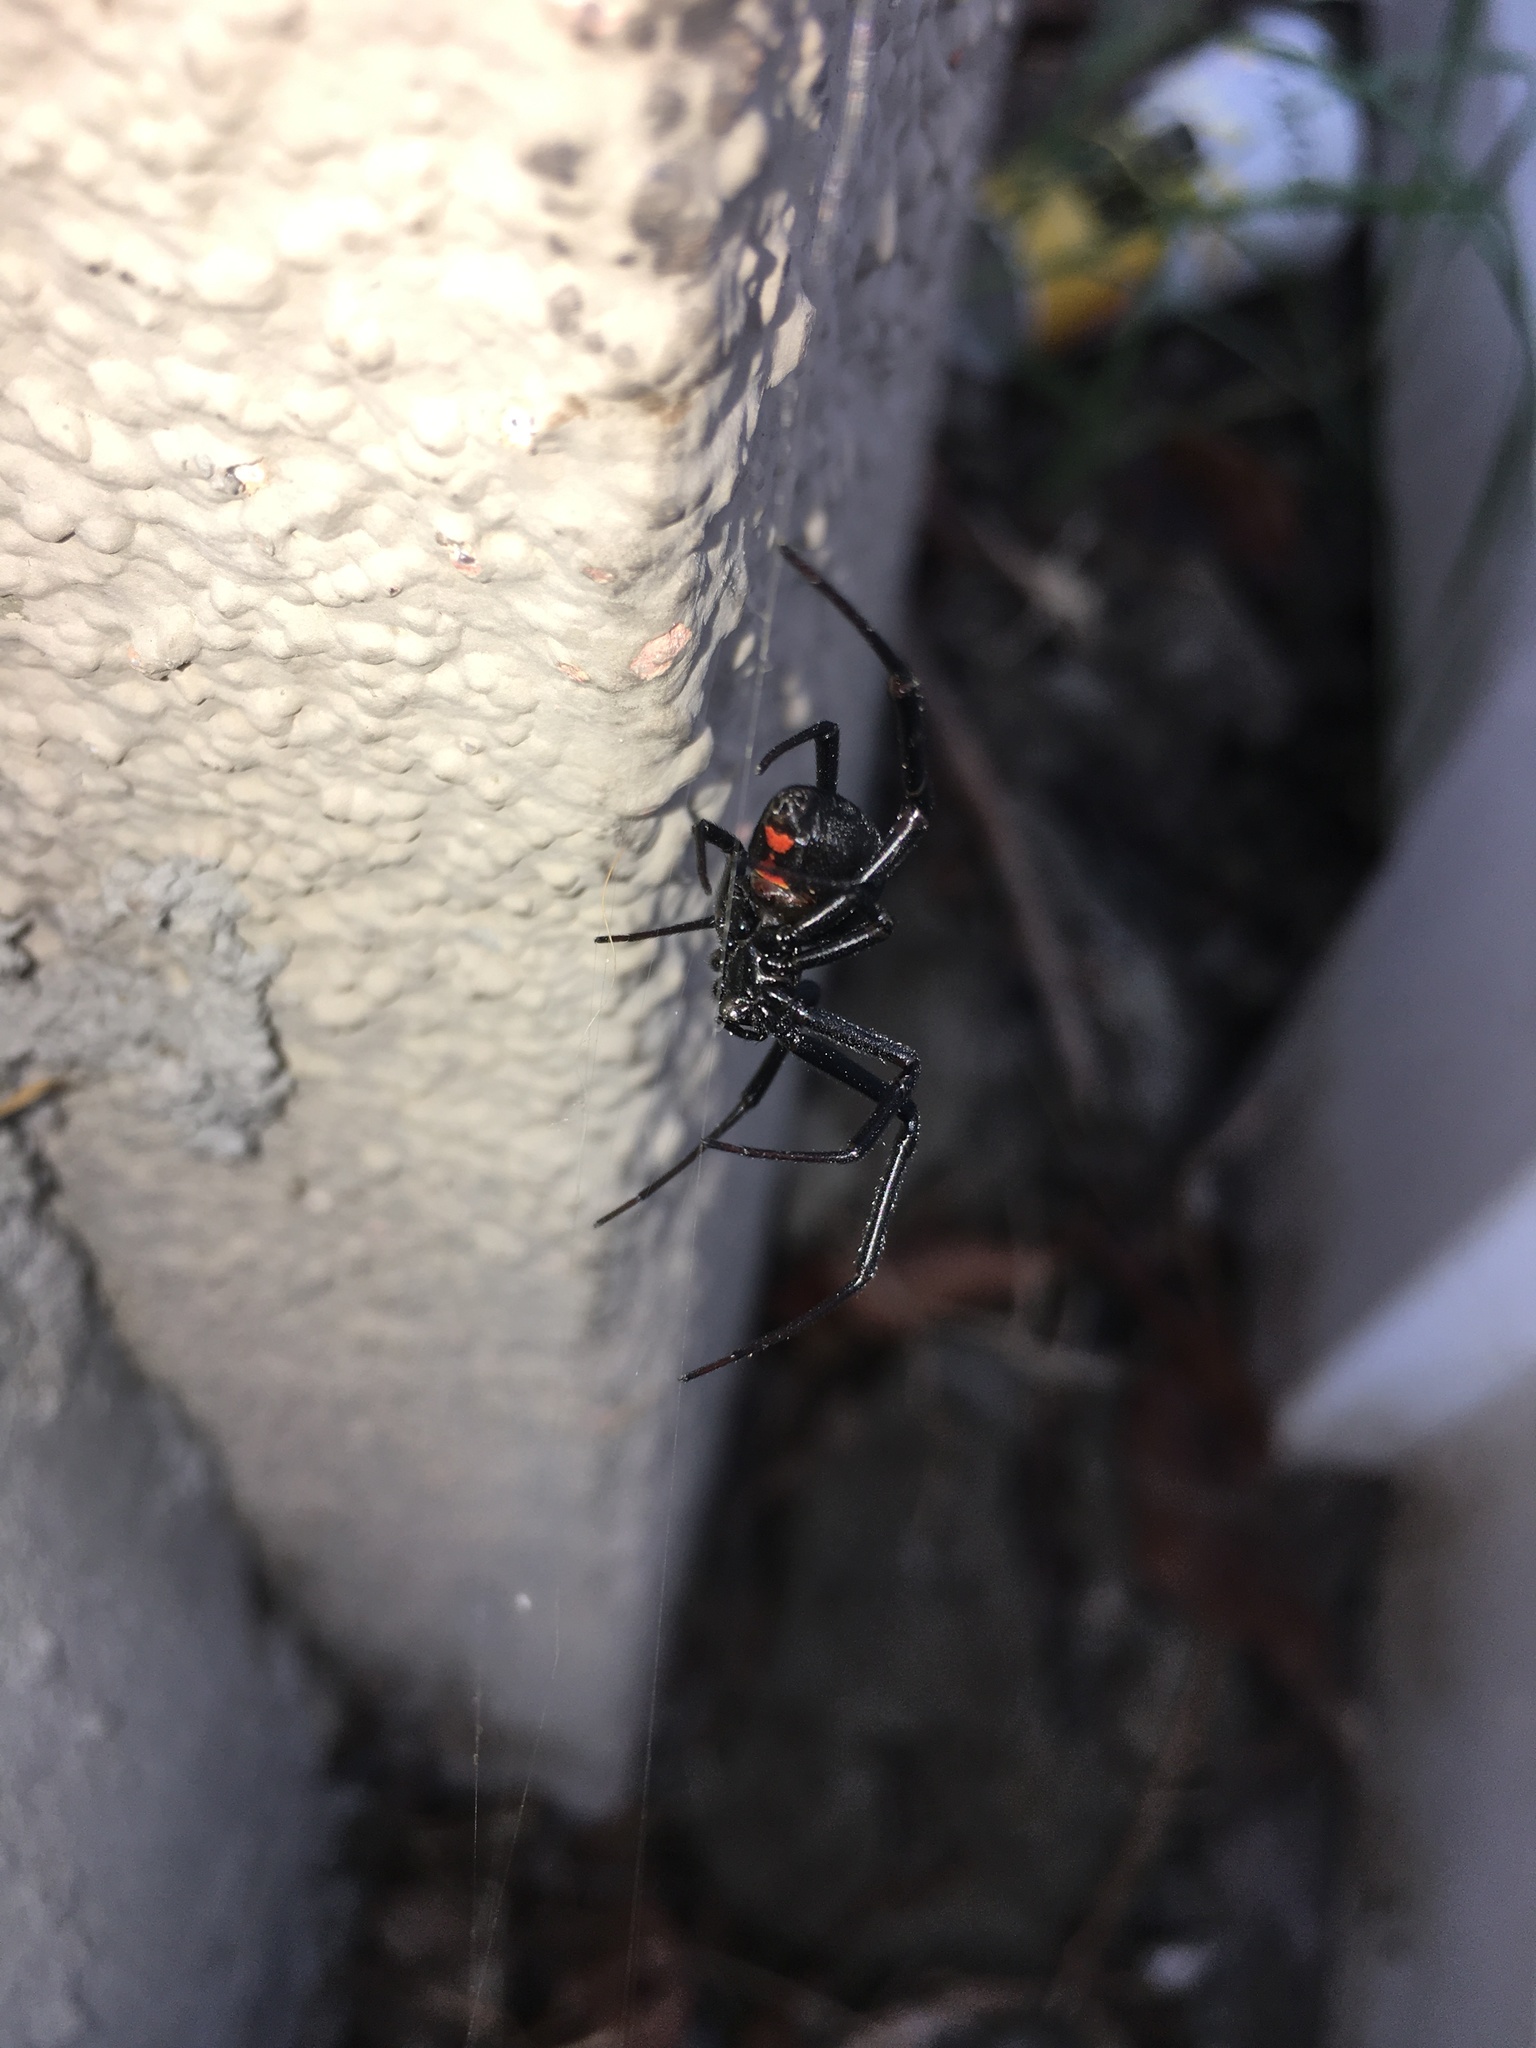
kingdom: Animalia
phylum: Arthropoda
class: Arachnida
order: Araneae
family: Theridiidae
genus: Latrodectus
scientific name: Latrodectus hesperus
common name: Western black widow
